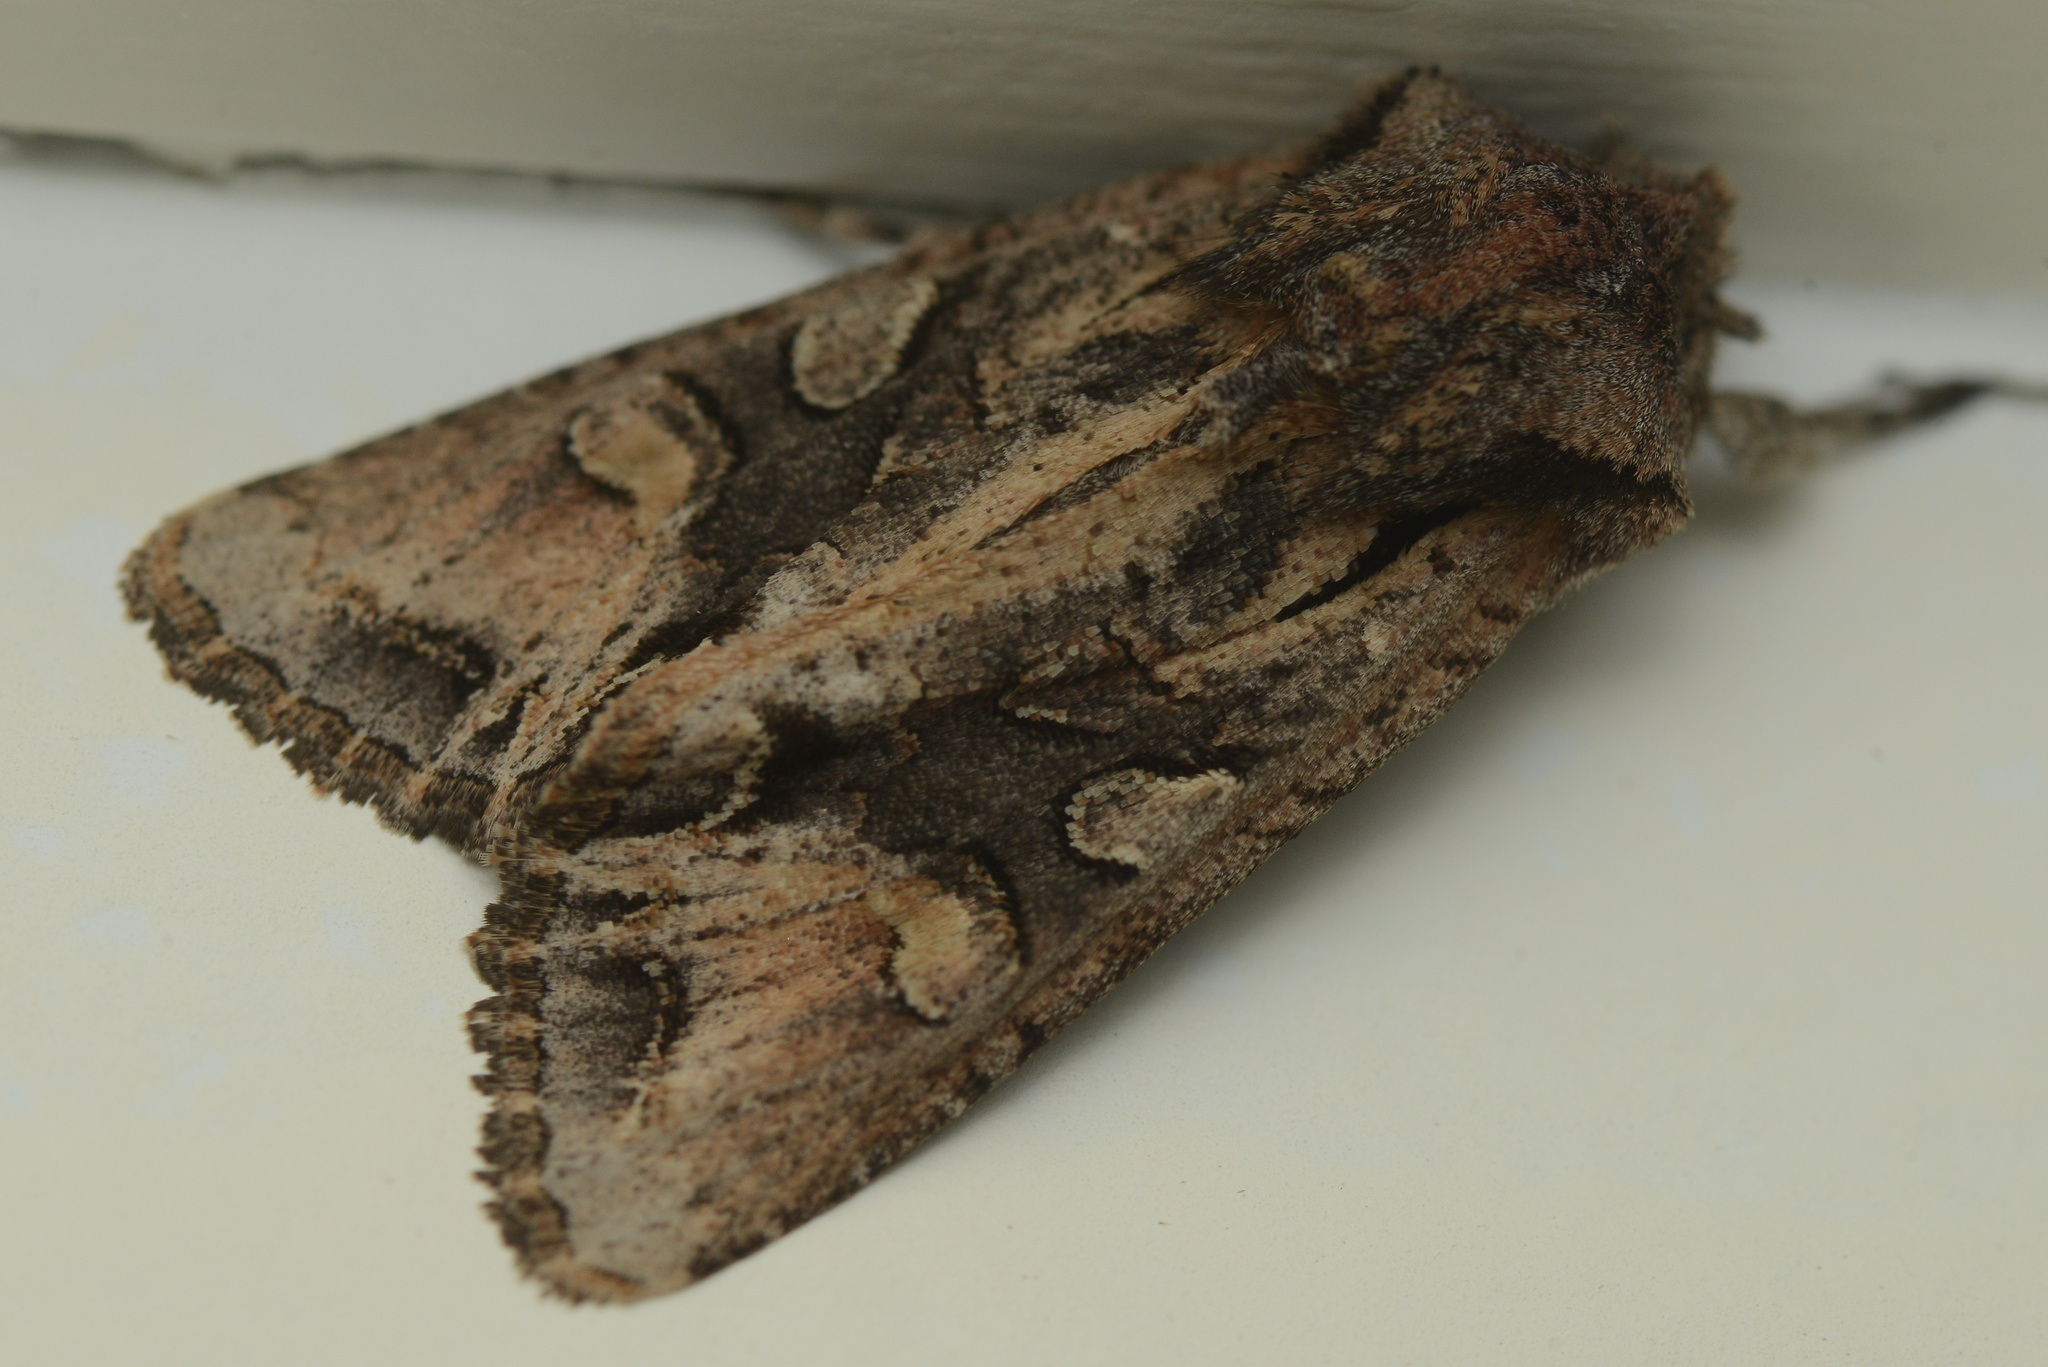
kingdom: Animalia
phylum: Arthropoda
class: Insecta
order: Lepidoptera
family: Noctuidae
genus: Ichneutica
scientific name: Ichneutica
